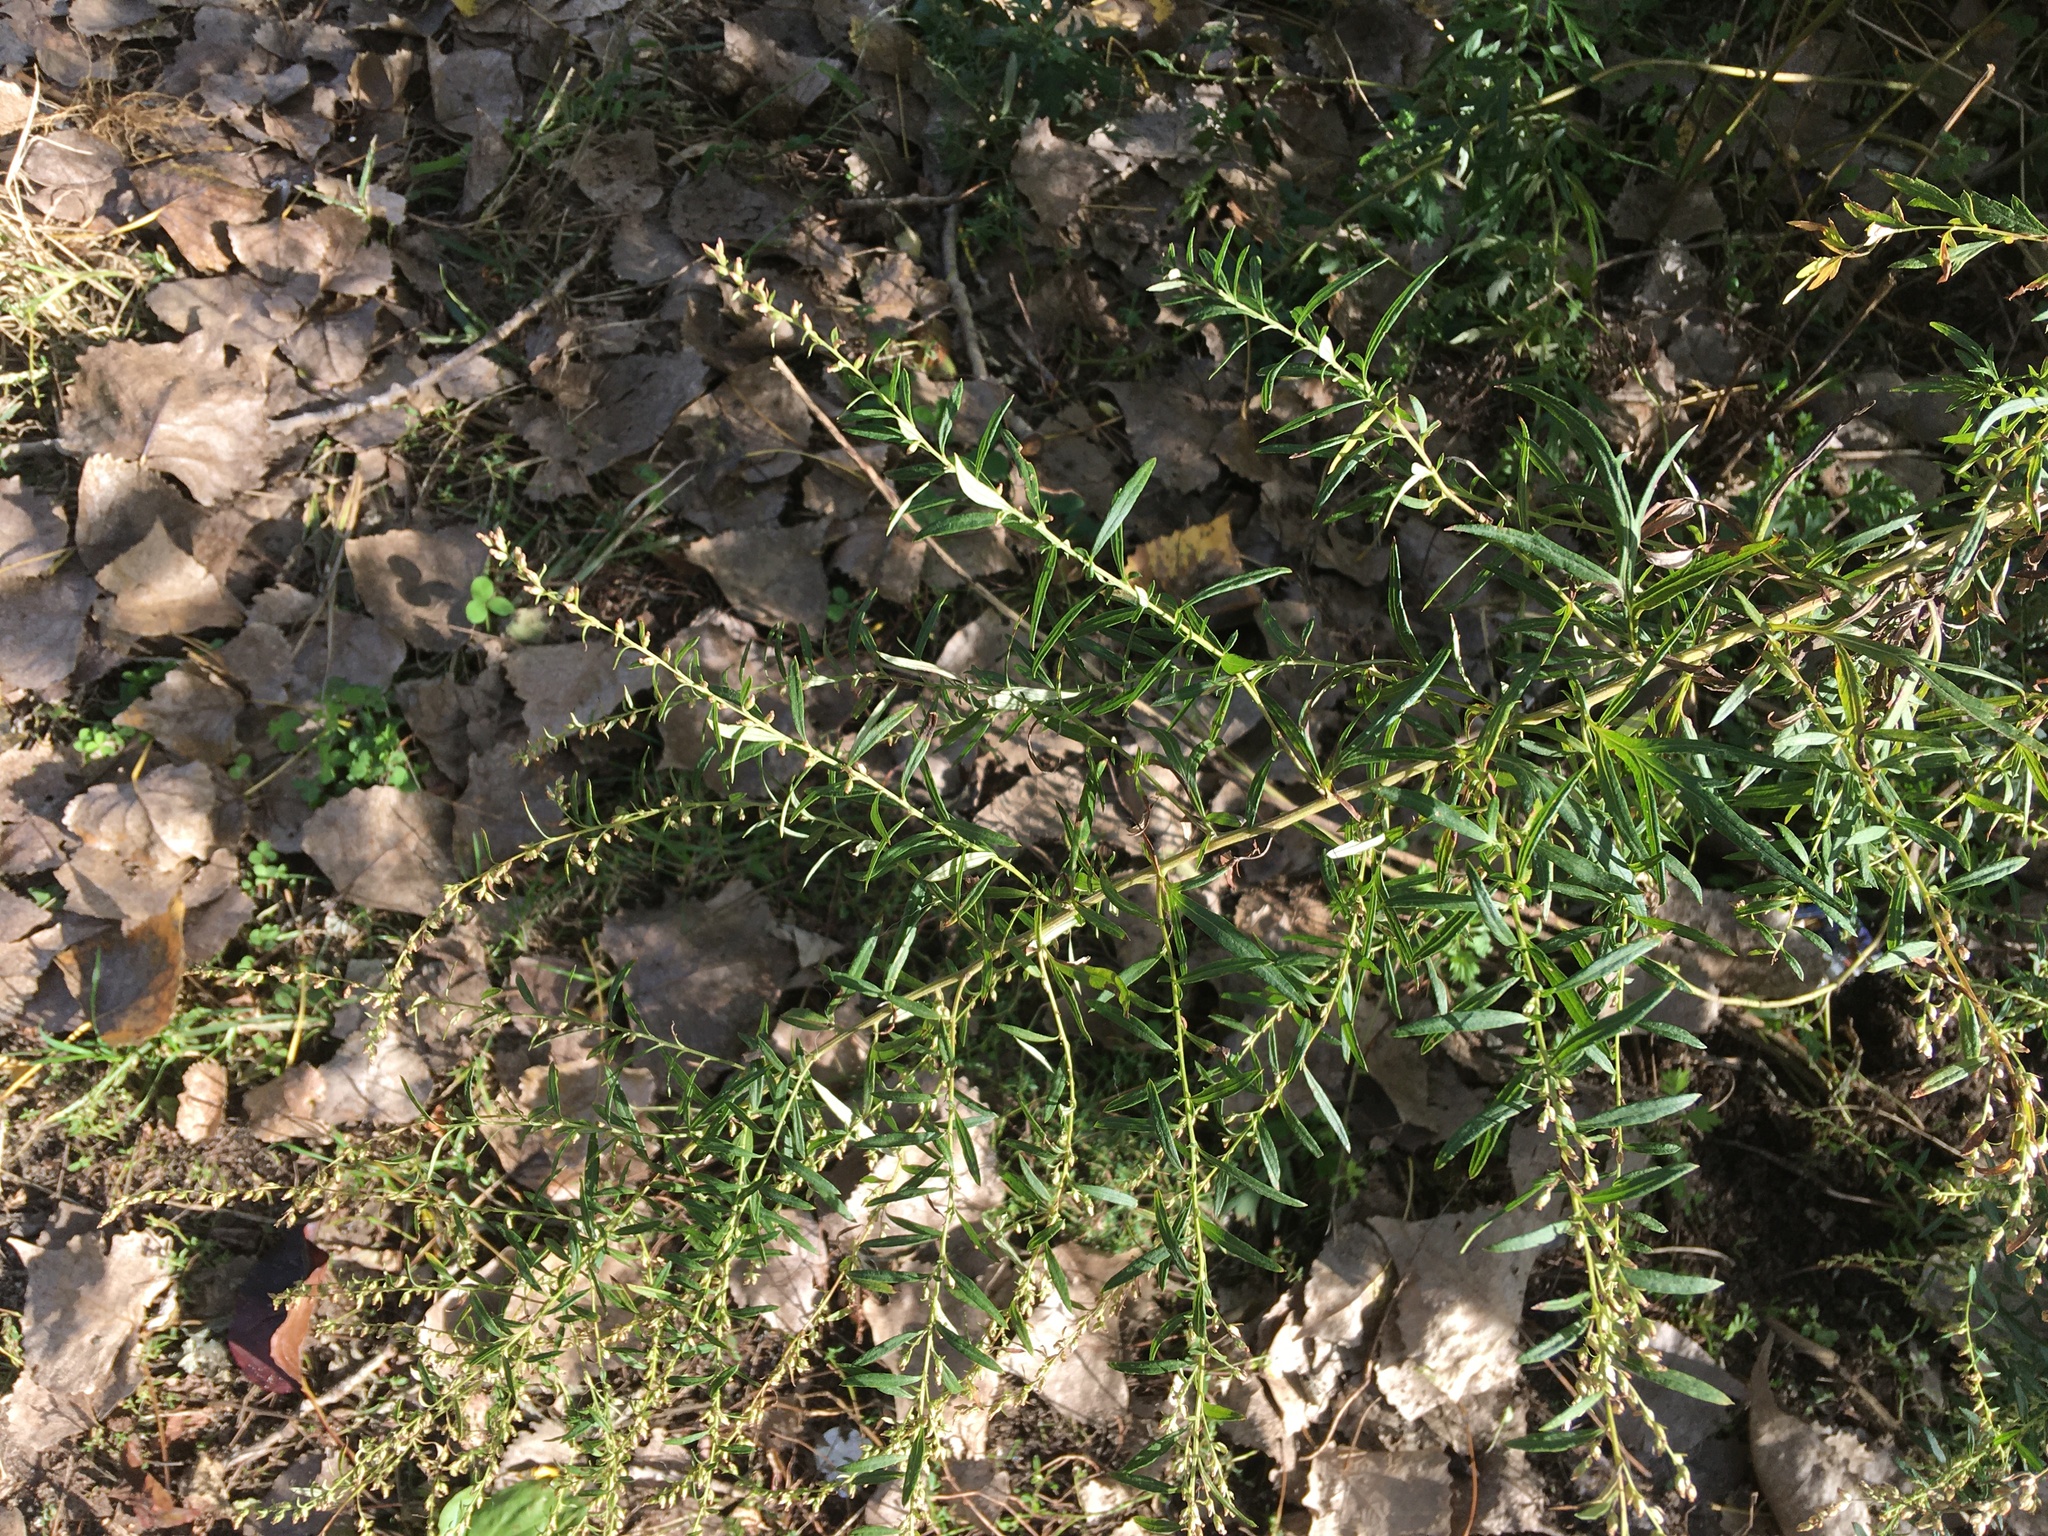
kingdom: Plantae
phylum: Tracheophyta
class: Magnoliopsida
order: Asterales
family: Asteraceae
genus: Artemisia
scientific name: Artemisia vulgaris
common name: Mugwort
